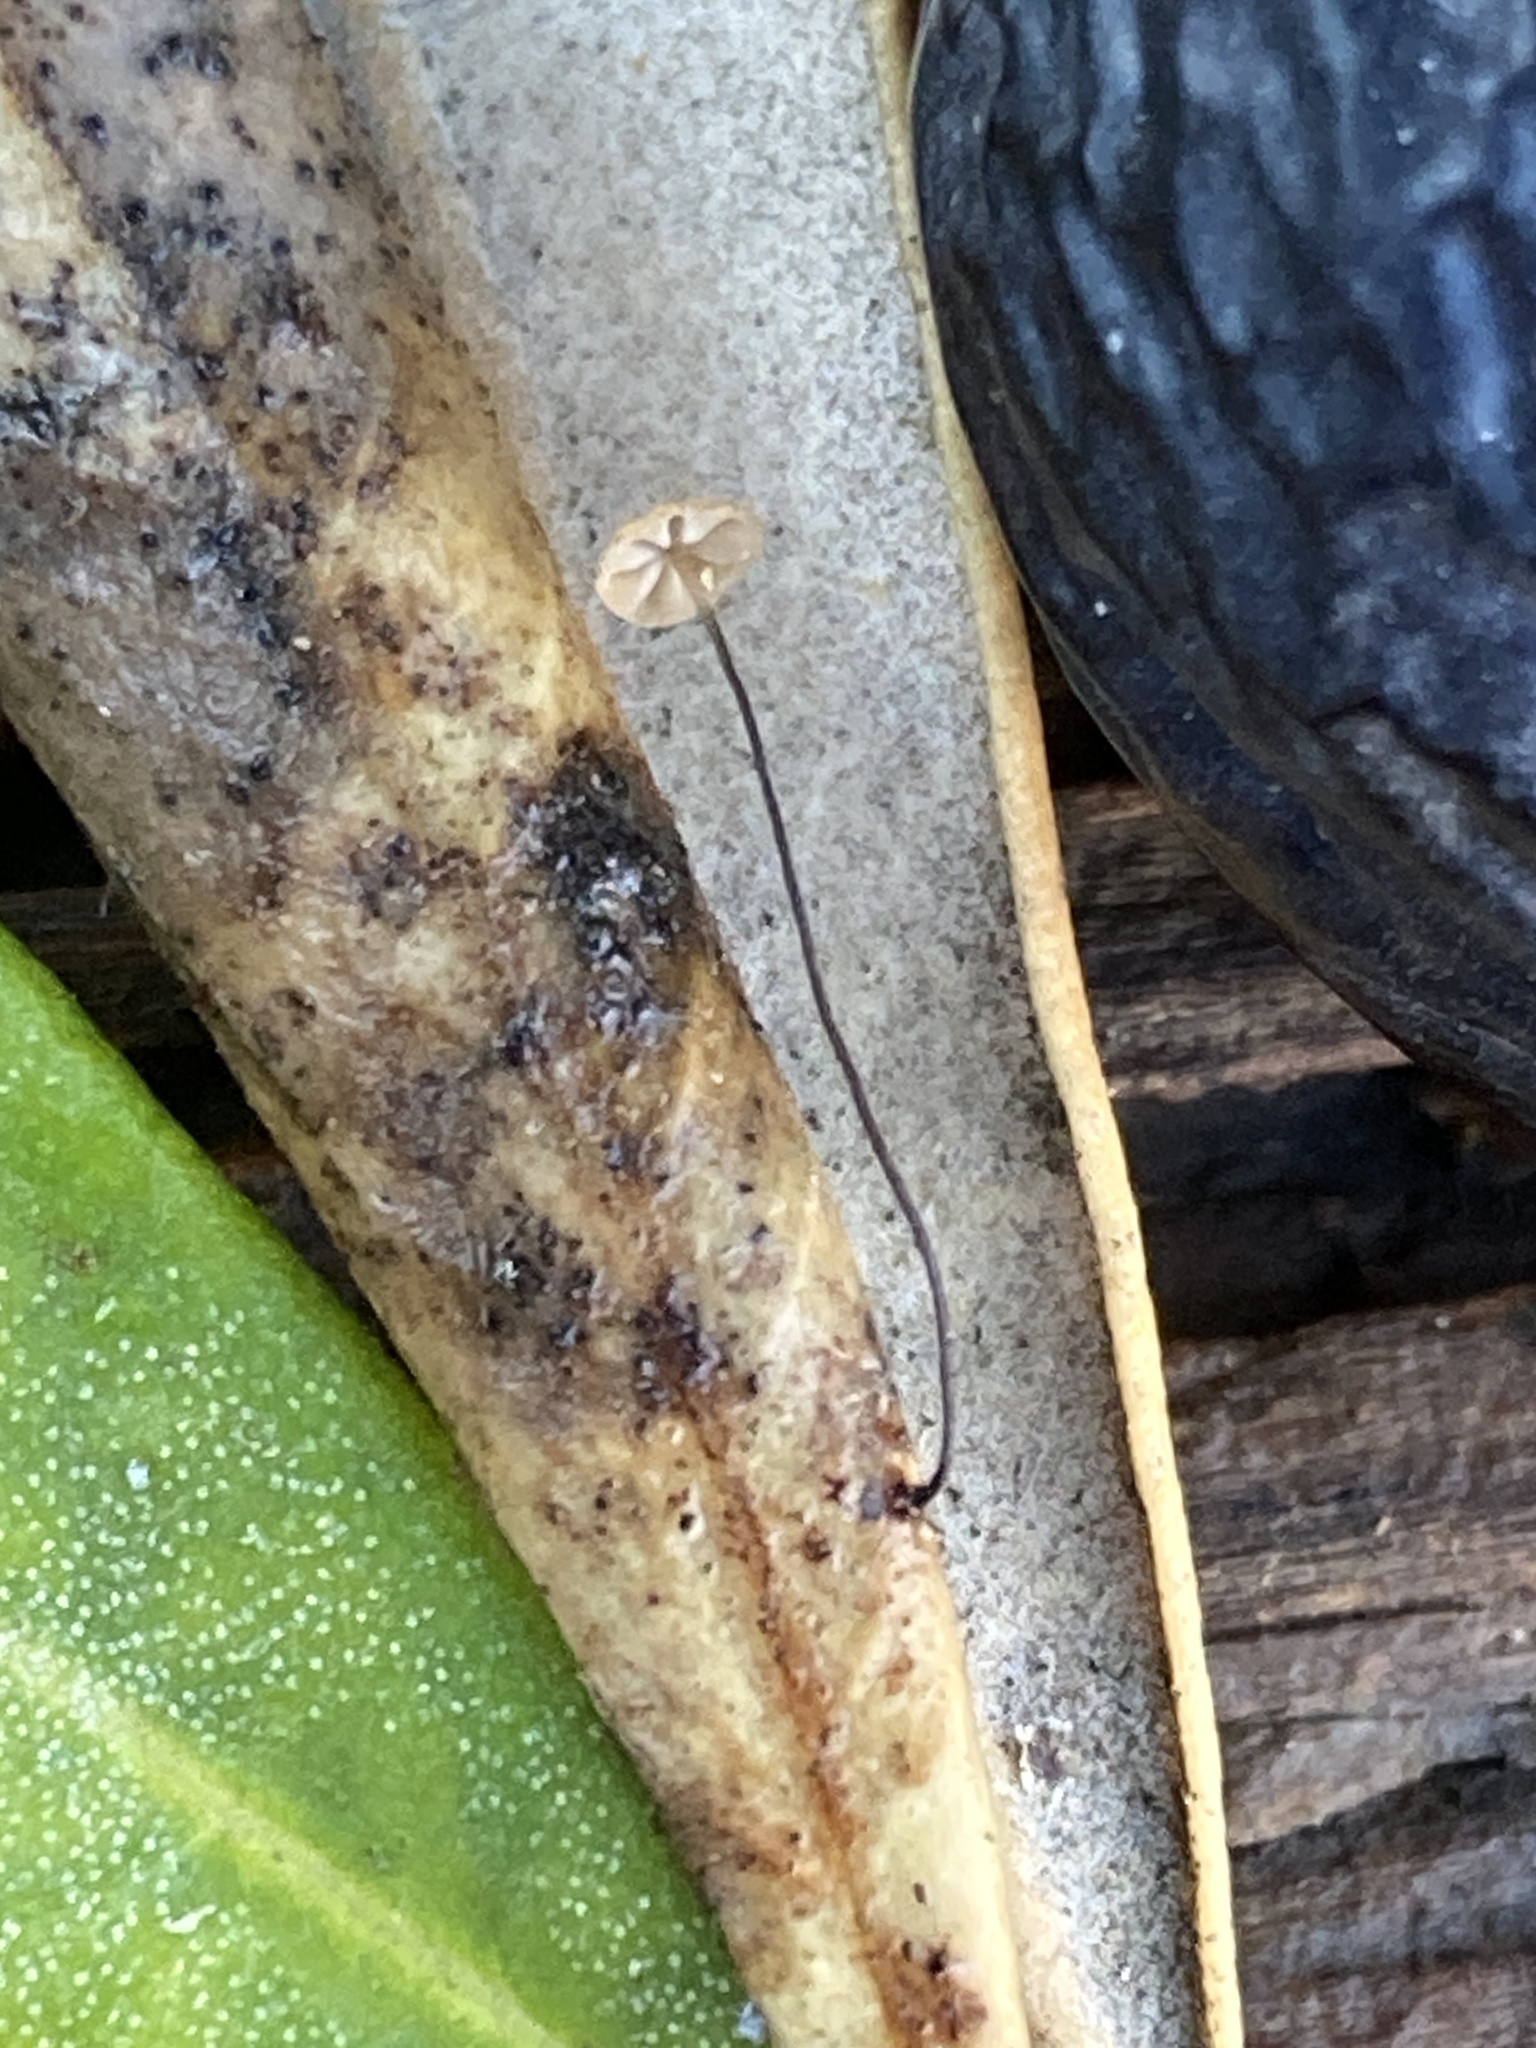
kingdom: Fungi
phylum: Basidiomycota
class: Agaricomycetes
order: Agaricales
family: Physalacriaceae
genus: Cryptomarasmius
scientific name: Cryptomarasmius corbariensis
